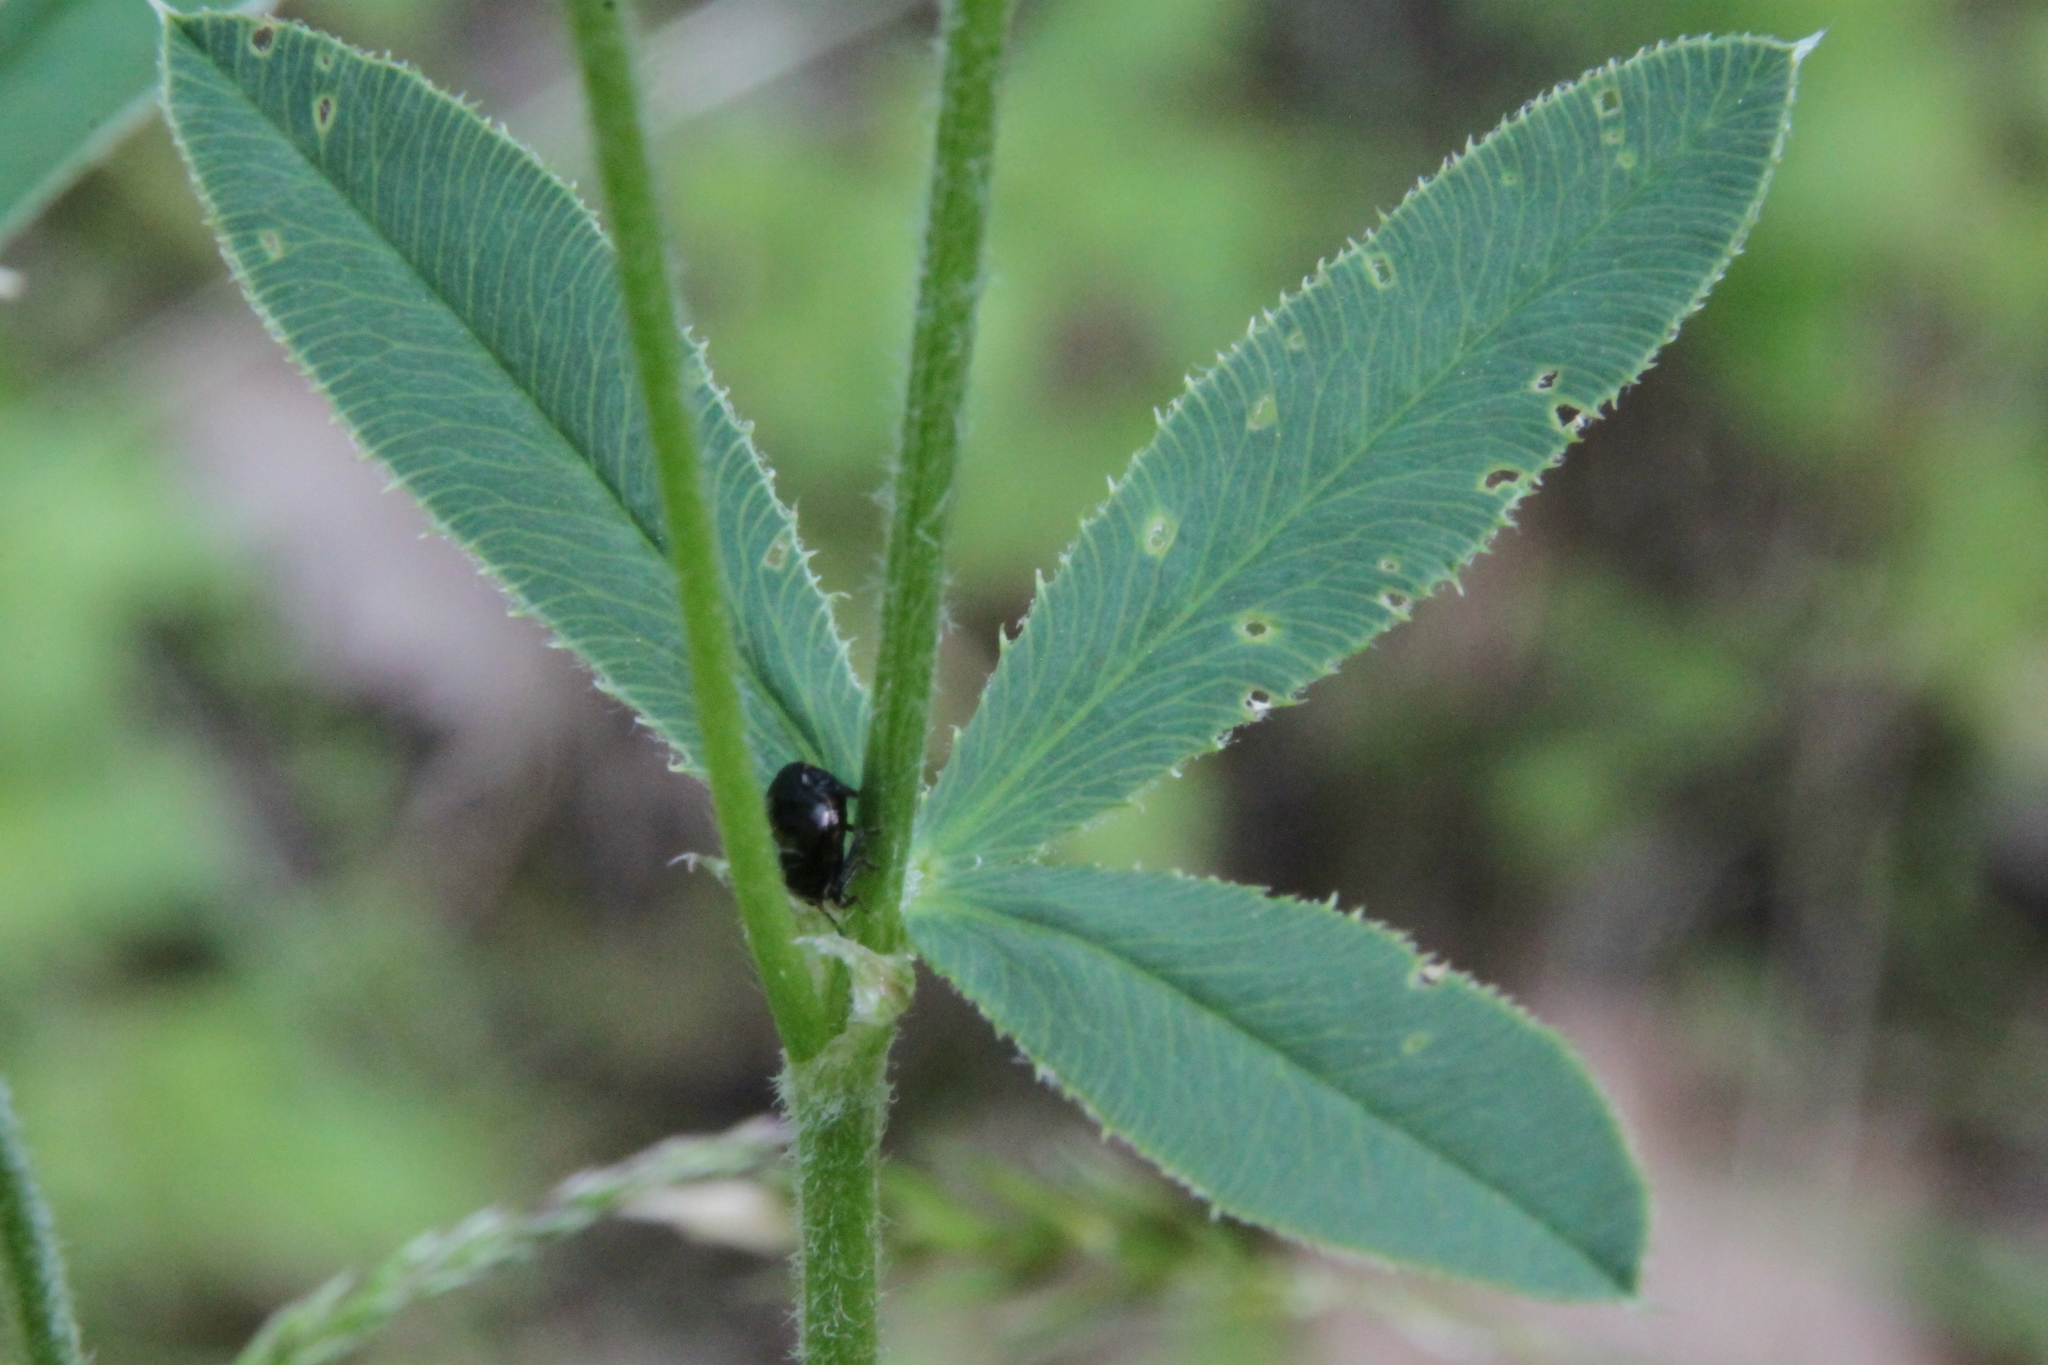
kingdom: Plantae
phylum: Tracheophyta
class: Magnoliopsida
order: Fabales
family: Fabaceae
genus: Trifolium
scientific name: Trifolium montanum
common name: Mountain clover
